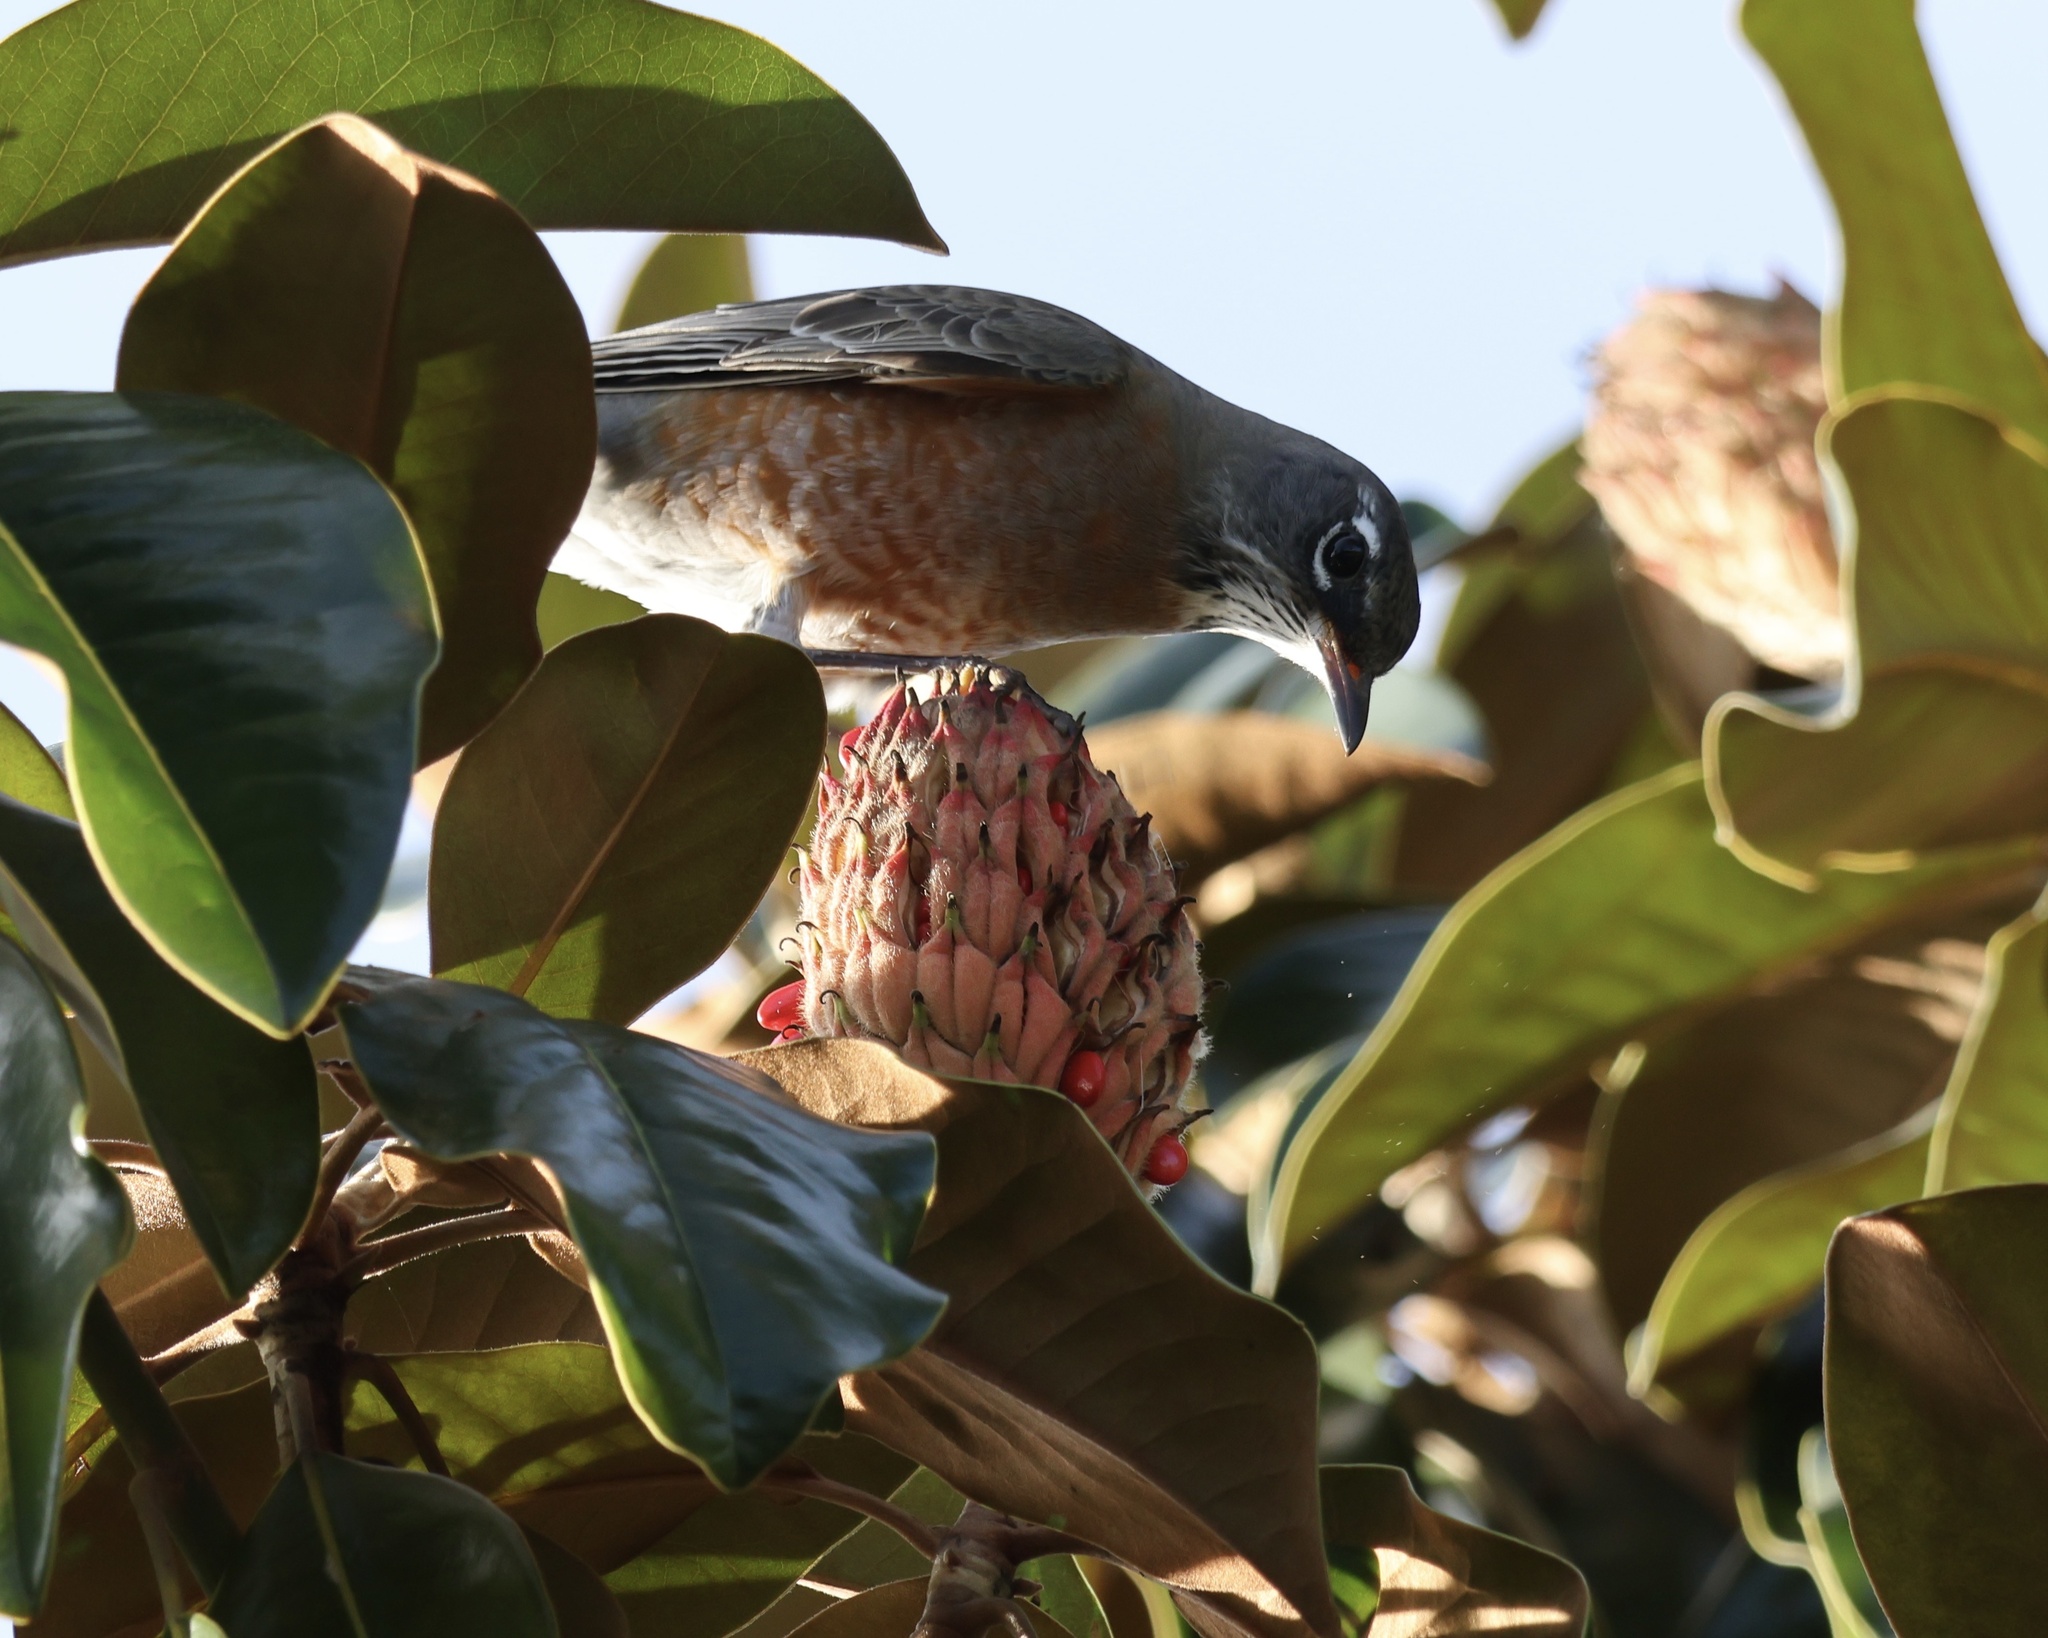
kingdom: Animalia
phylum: Chordata
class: Aves
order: Passeriformes
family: Turdidae
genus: Turdus
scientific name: Turdus migratorius
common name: American robin
